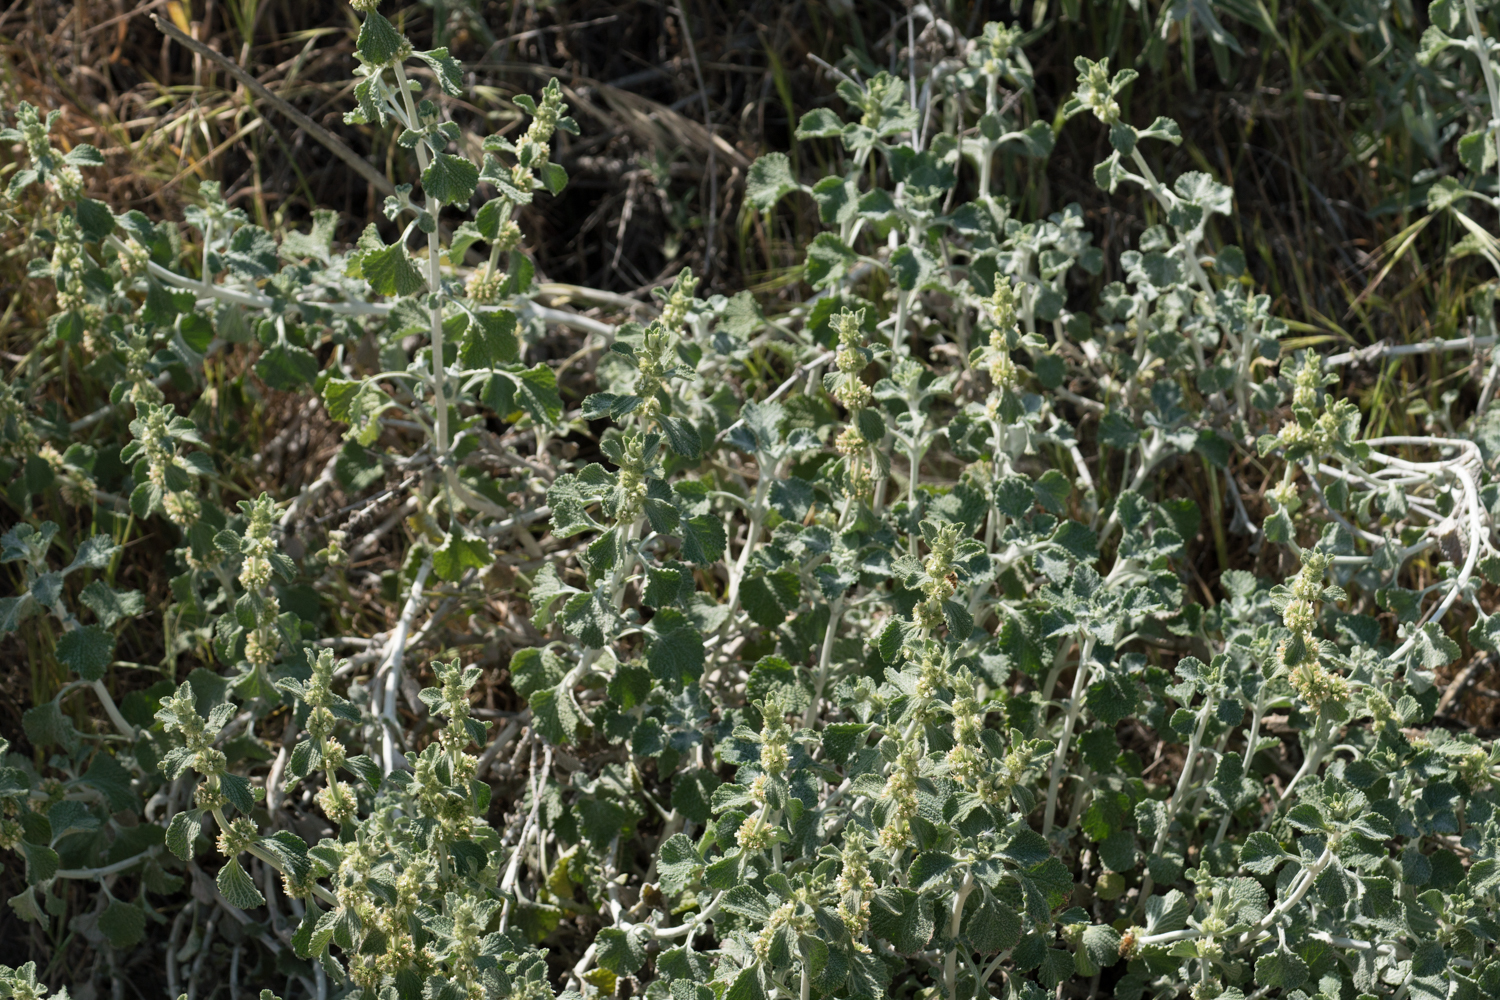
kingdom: Plantae
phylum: Tracheophyta
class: Magnoliopsida
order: Lamiales
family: Lamiaceae
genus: Marrubium
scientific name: Marrubium vulgare
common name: Horehound
